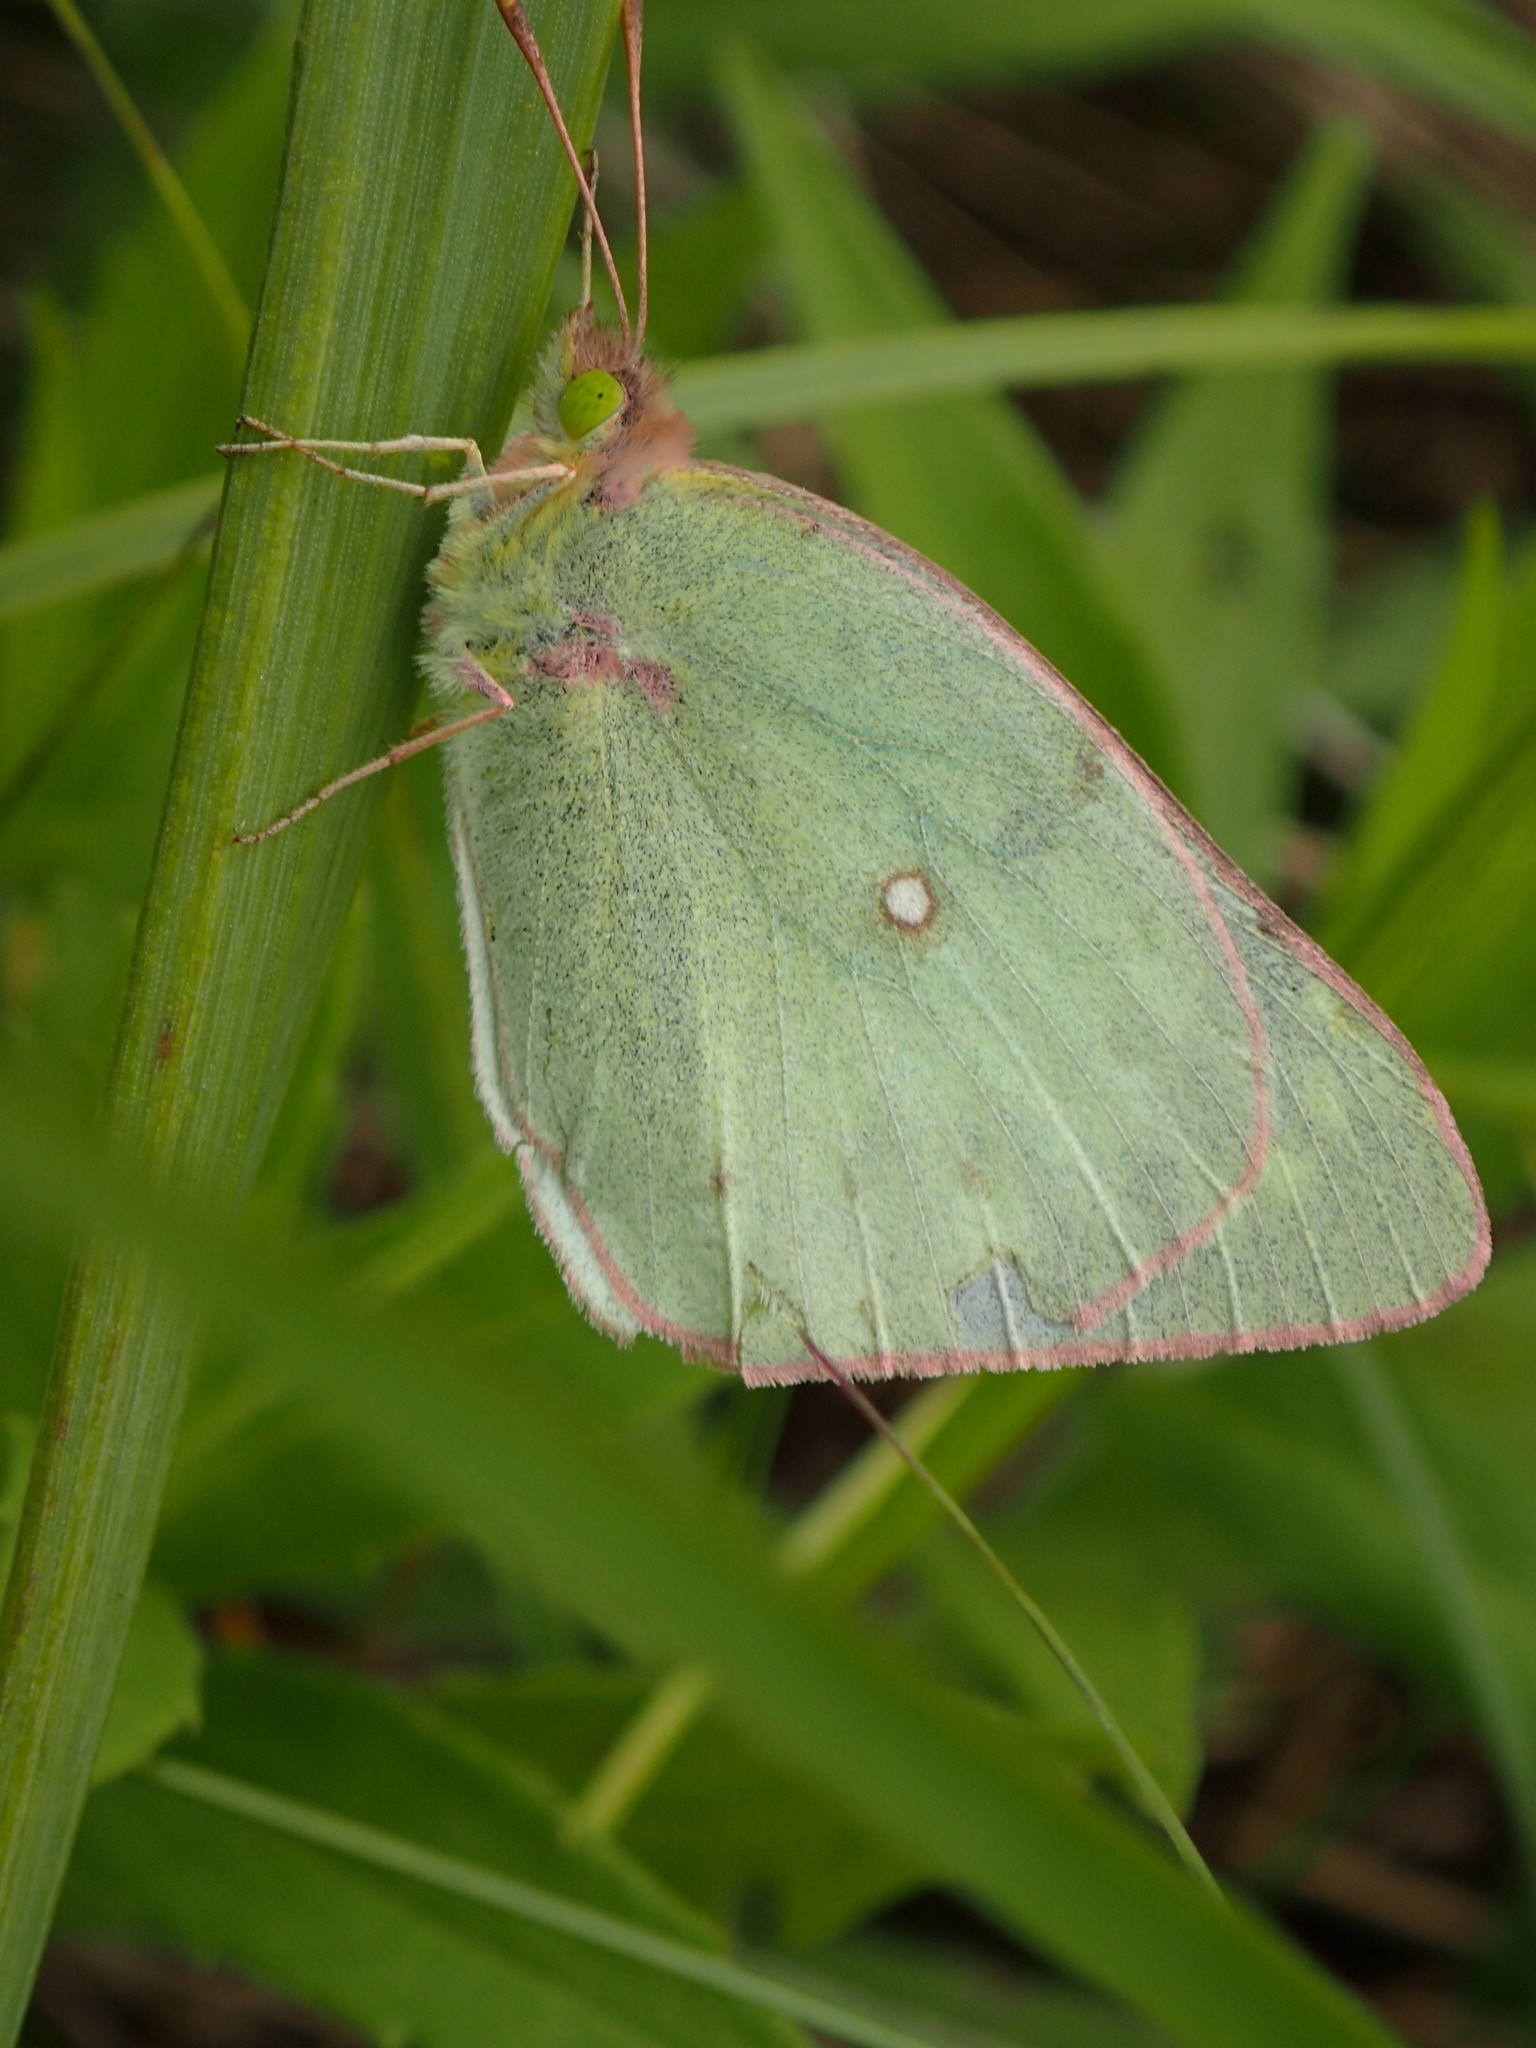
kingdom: Animalia
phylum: Arthropoda
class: Insecta
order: Lepidoptera
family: Pieridae
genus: Colias
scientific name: Colias philodice
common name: Clouded sulphur
